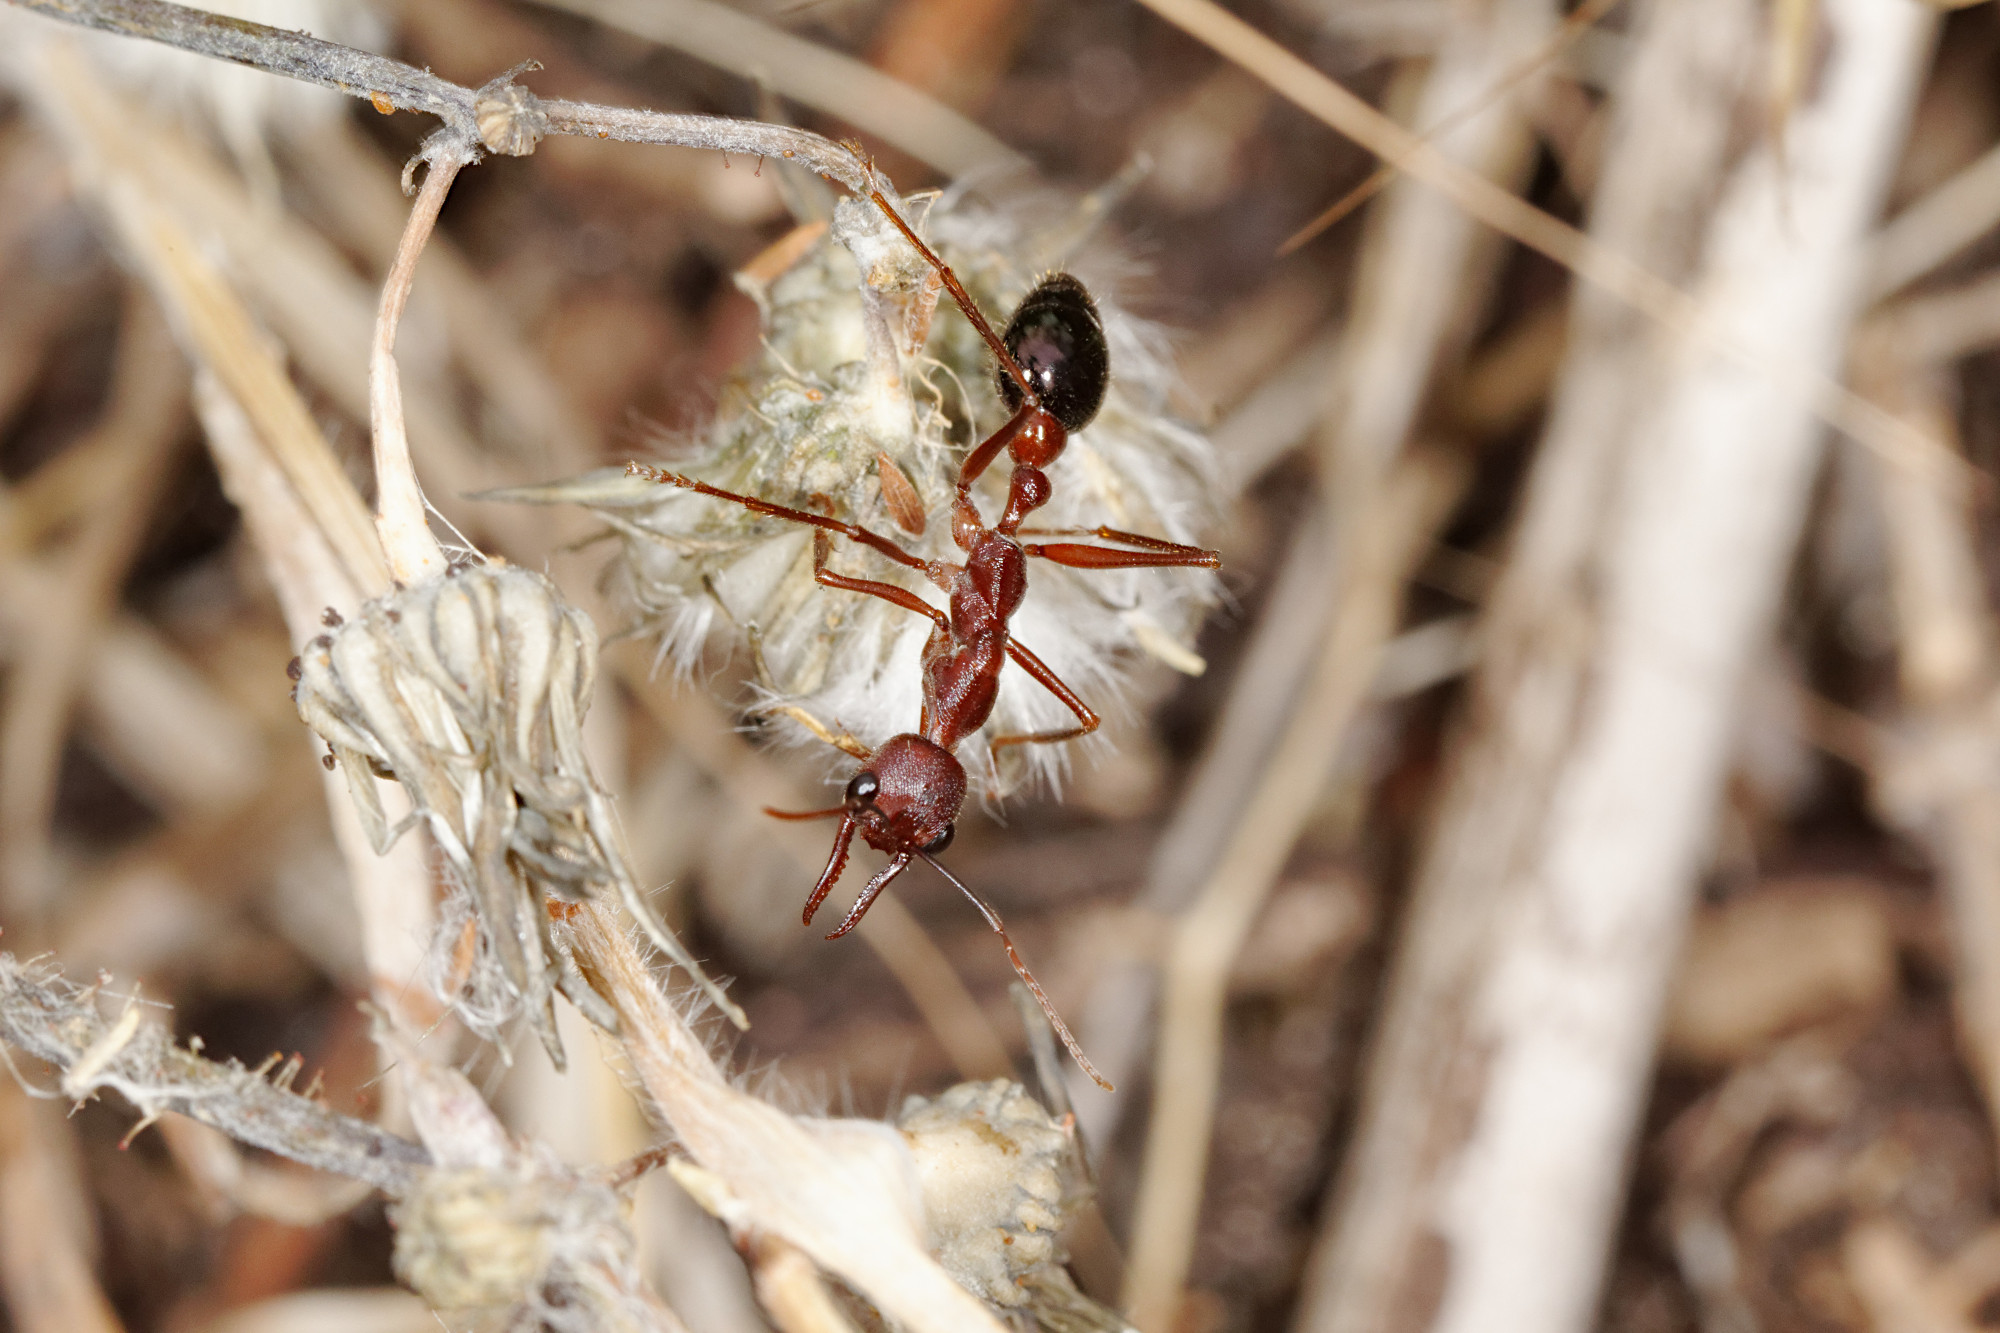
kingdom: Animalia
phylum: Arthropoda
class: Insecta
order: Hymenoptera
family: Formicidae
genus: Myrmecia
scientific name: Myrmecia forficata
